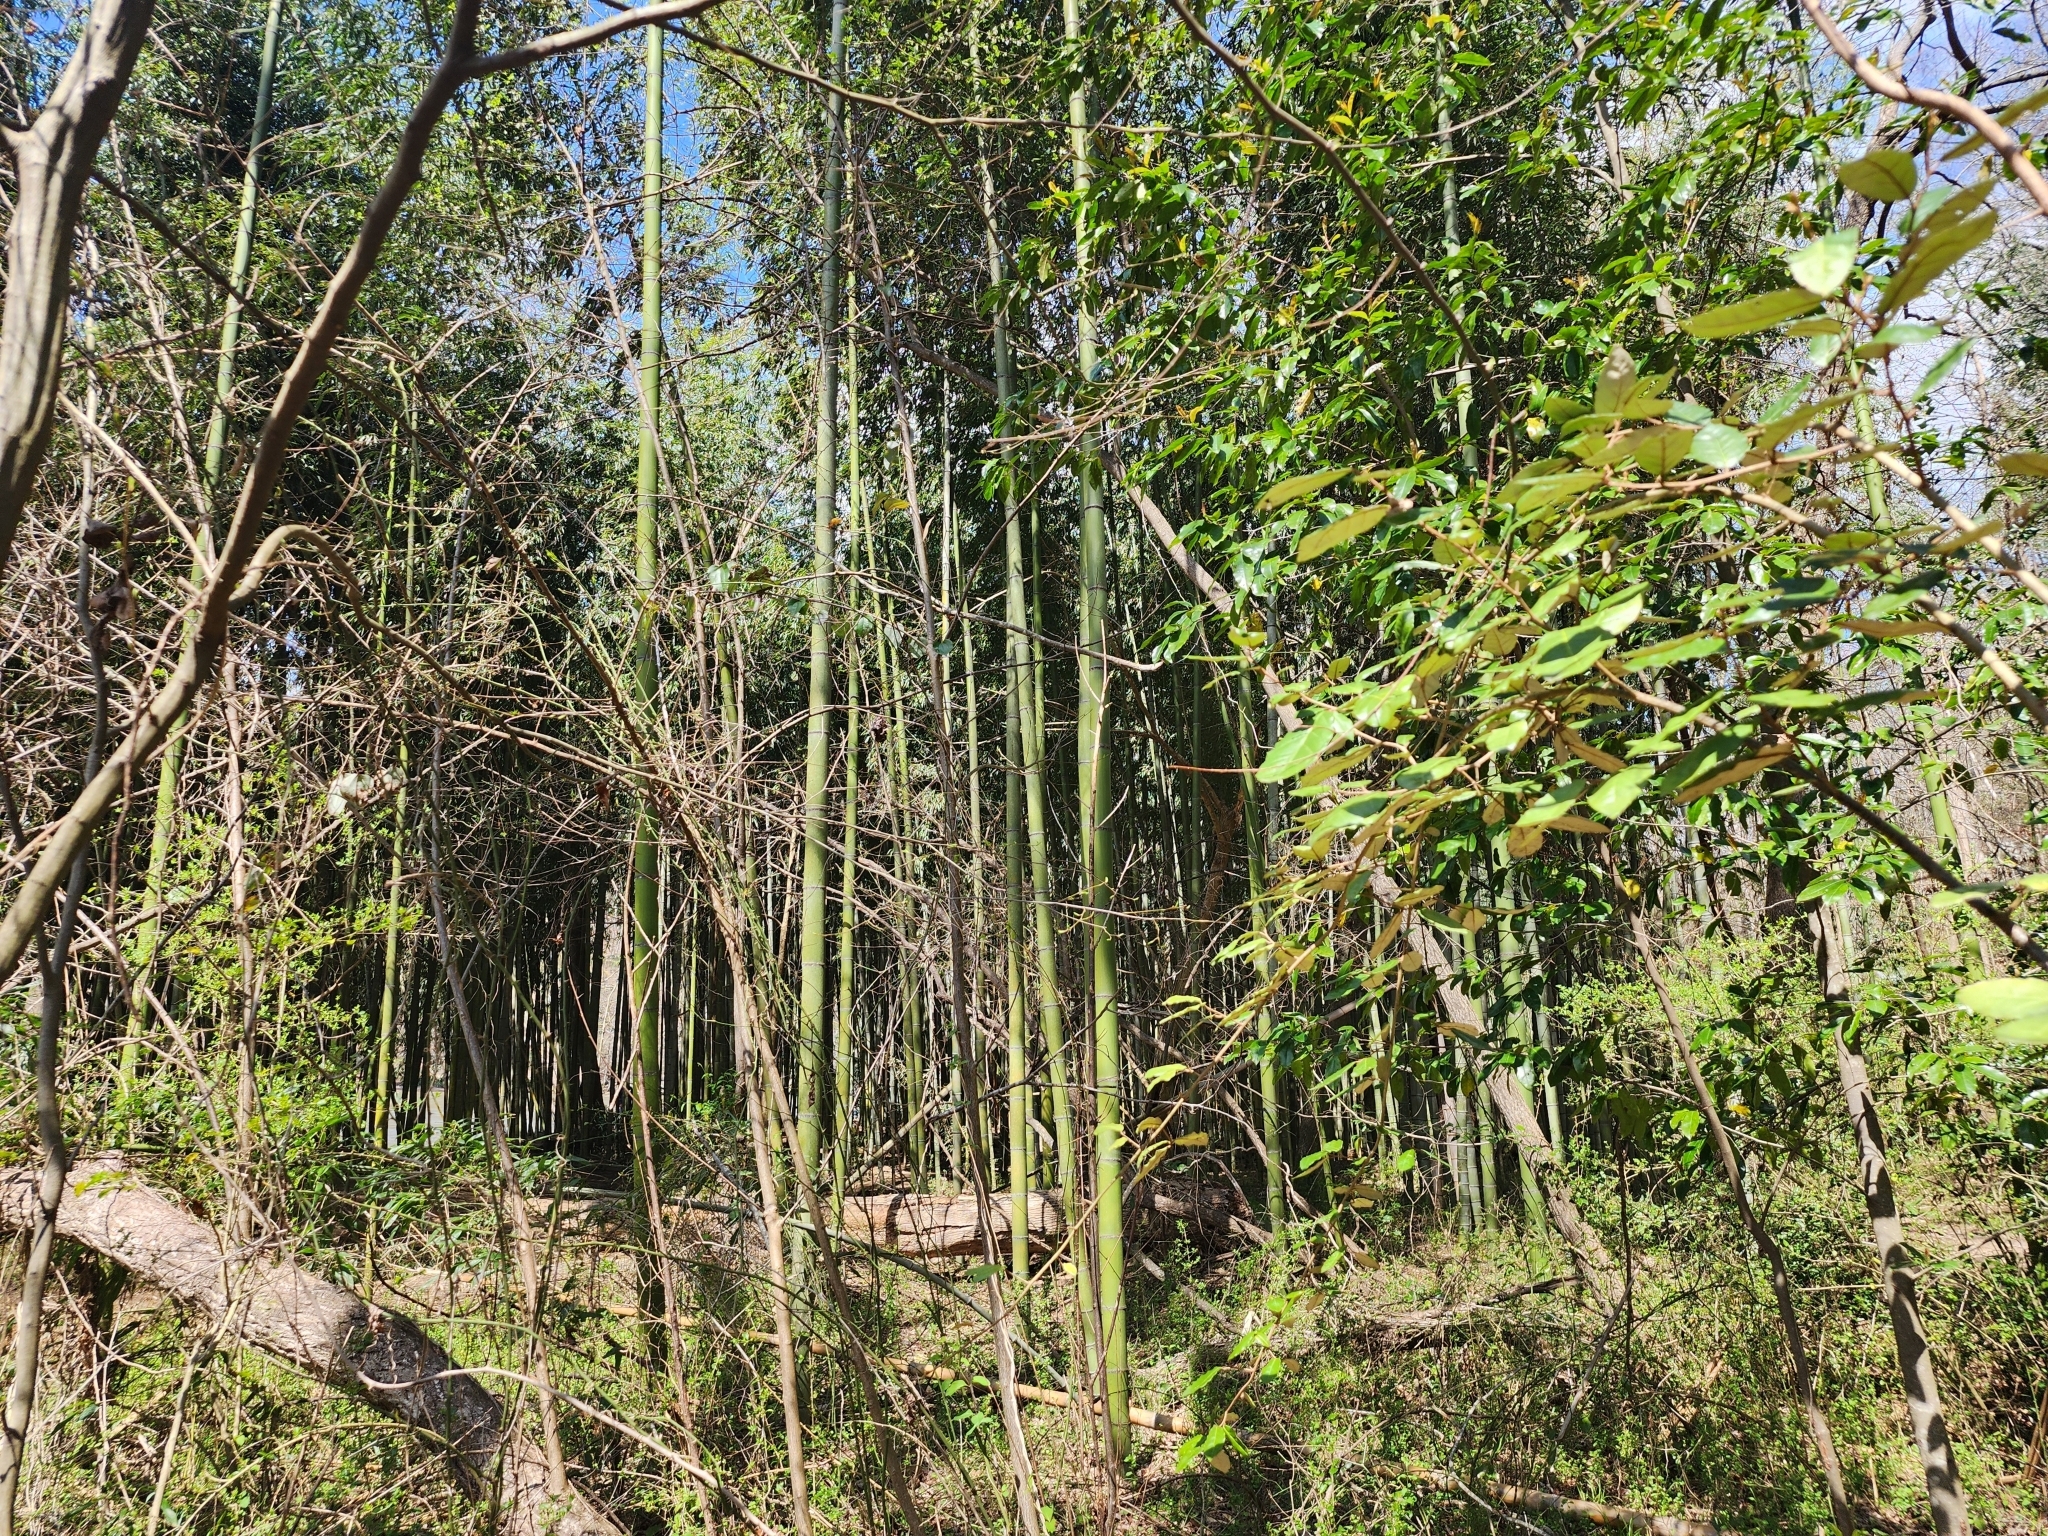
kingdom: Plantae
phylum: Tracheophyta
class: Liliopsida
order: Poales
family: Poaceae
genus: Phyllostachys
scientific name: Phyllostachys reticulata
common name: Bamboo
